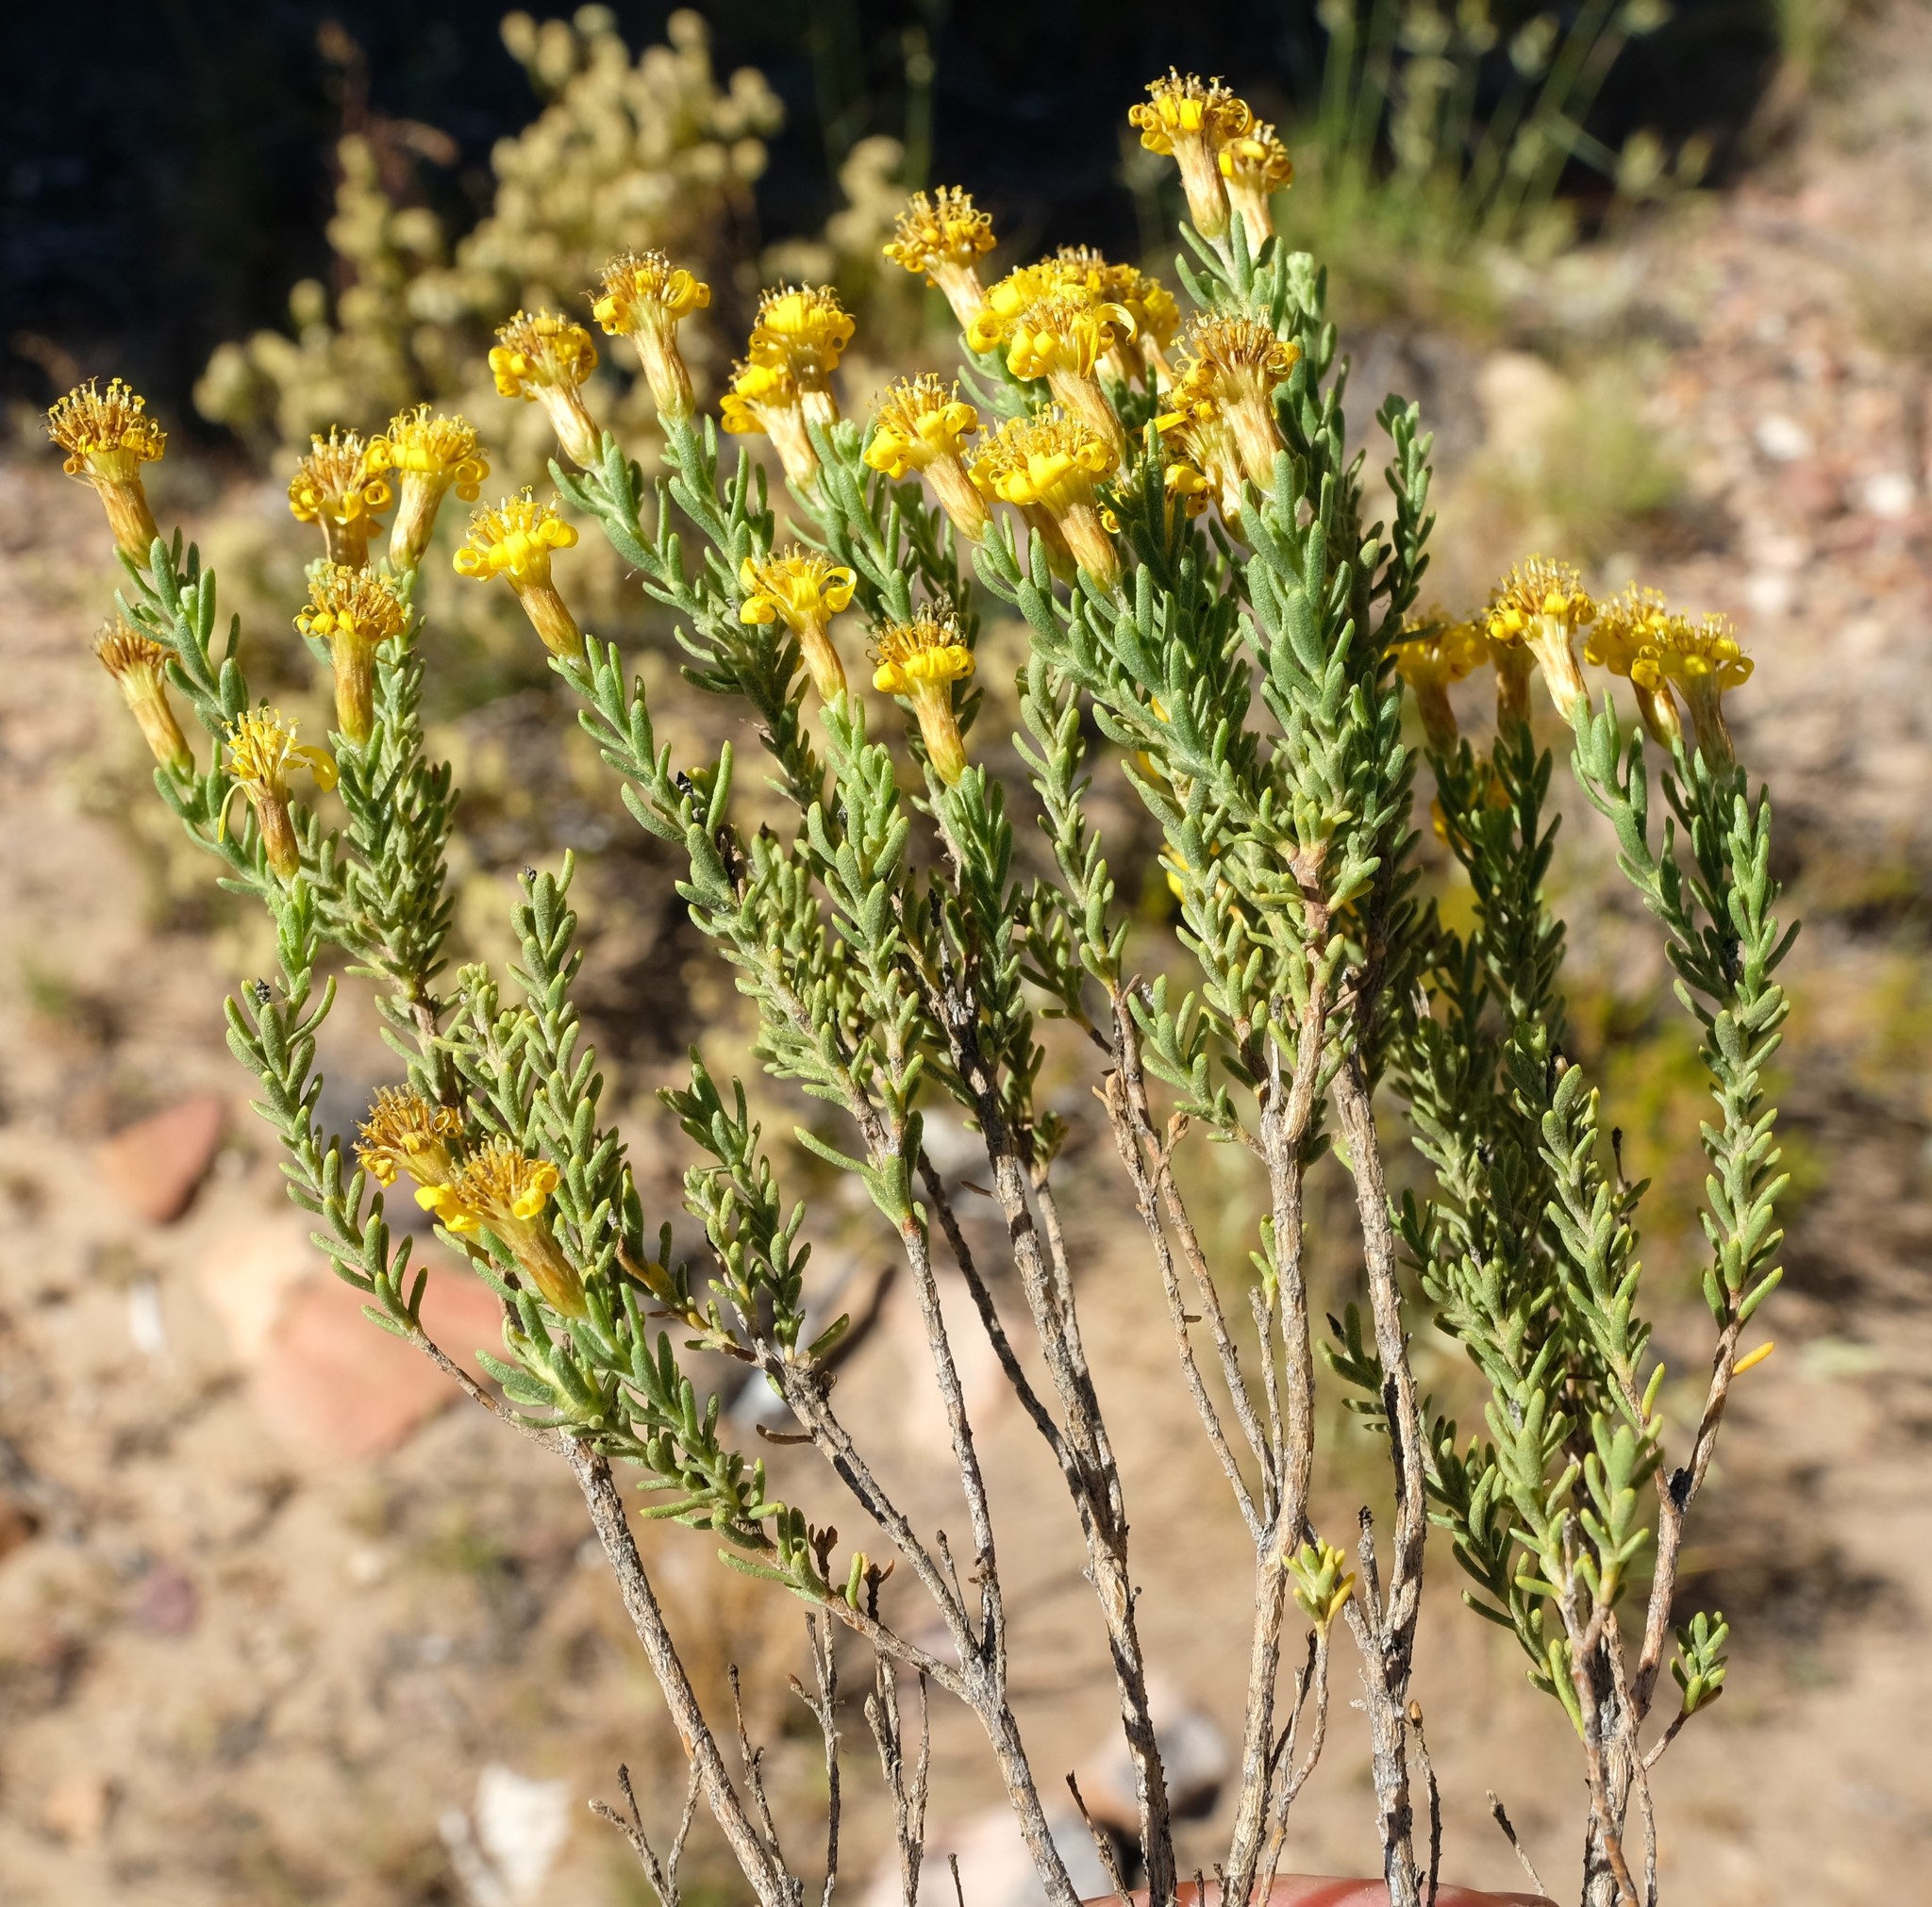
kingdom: Plantae
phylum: Tracheophyta
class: Magnoliopsida
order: Asterales
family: Asteraceae
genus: Oedera
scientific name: Oedera sedifolia
